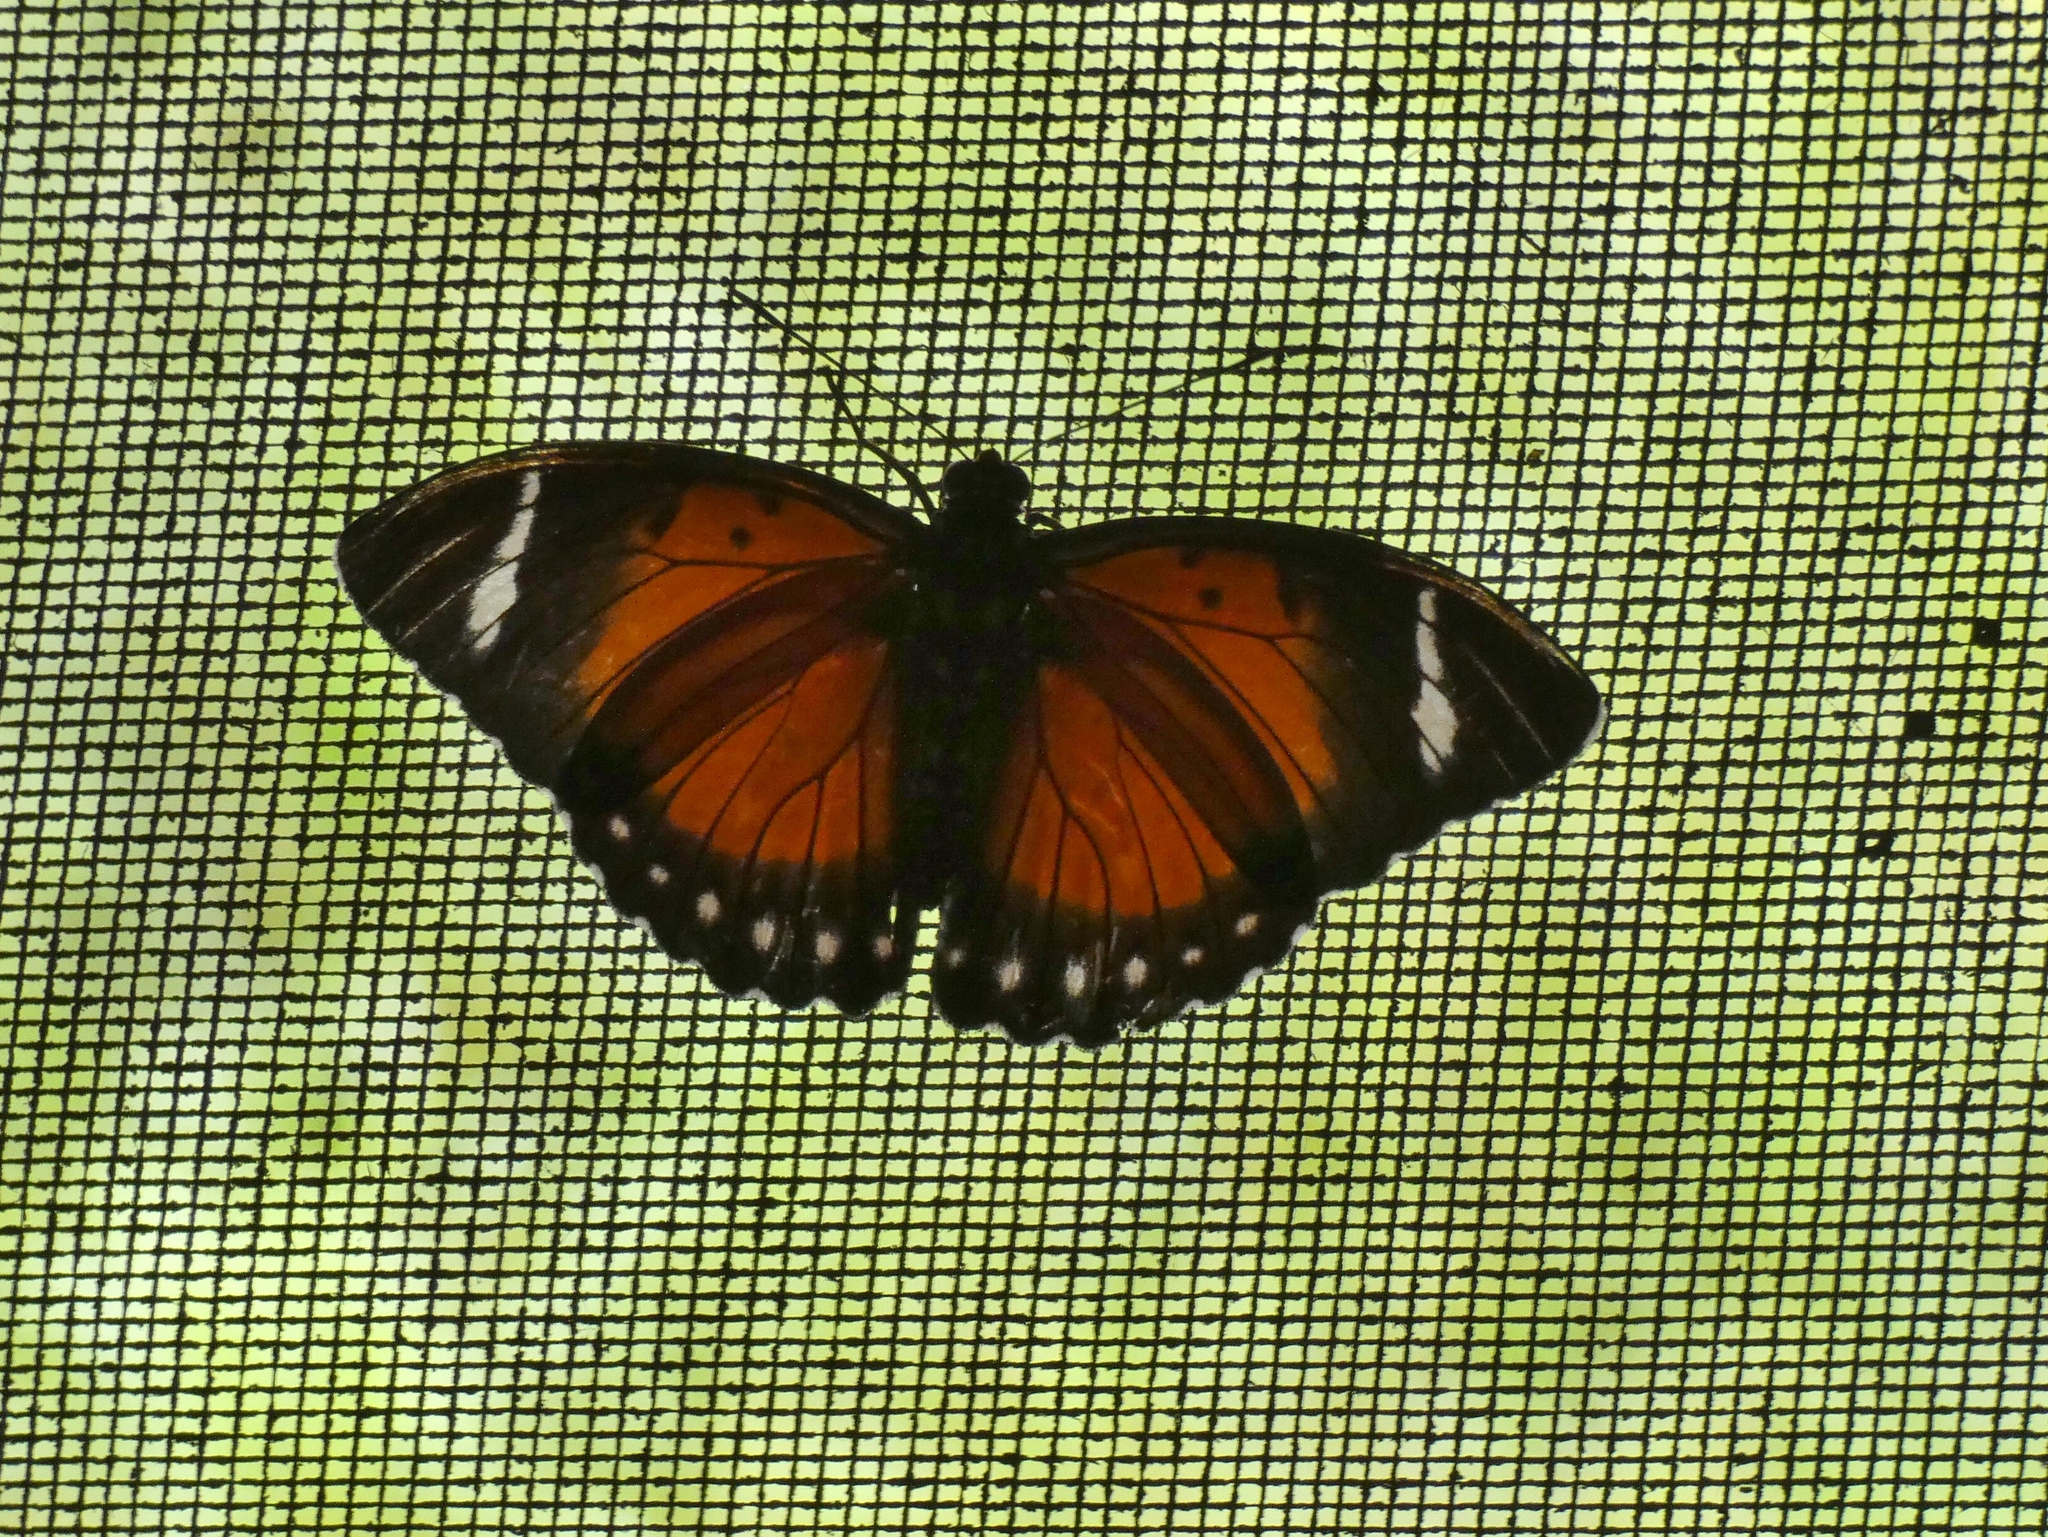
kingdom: Animalia
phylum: Arthropoda
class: Insecta
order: Lepidoptera
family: Nymphalidae
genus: Euphaedra
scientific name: Euphaedra mambili
